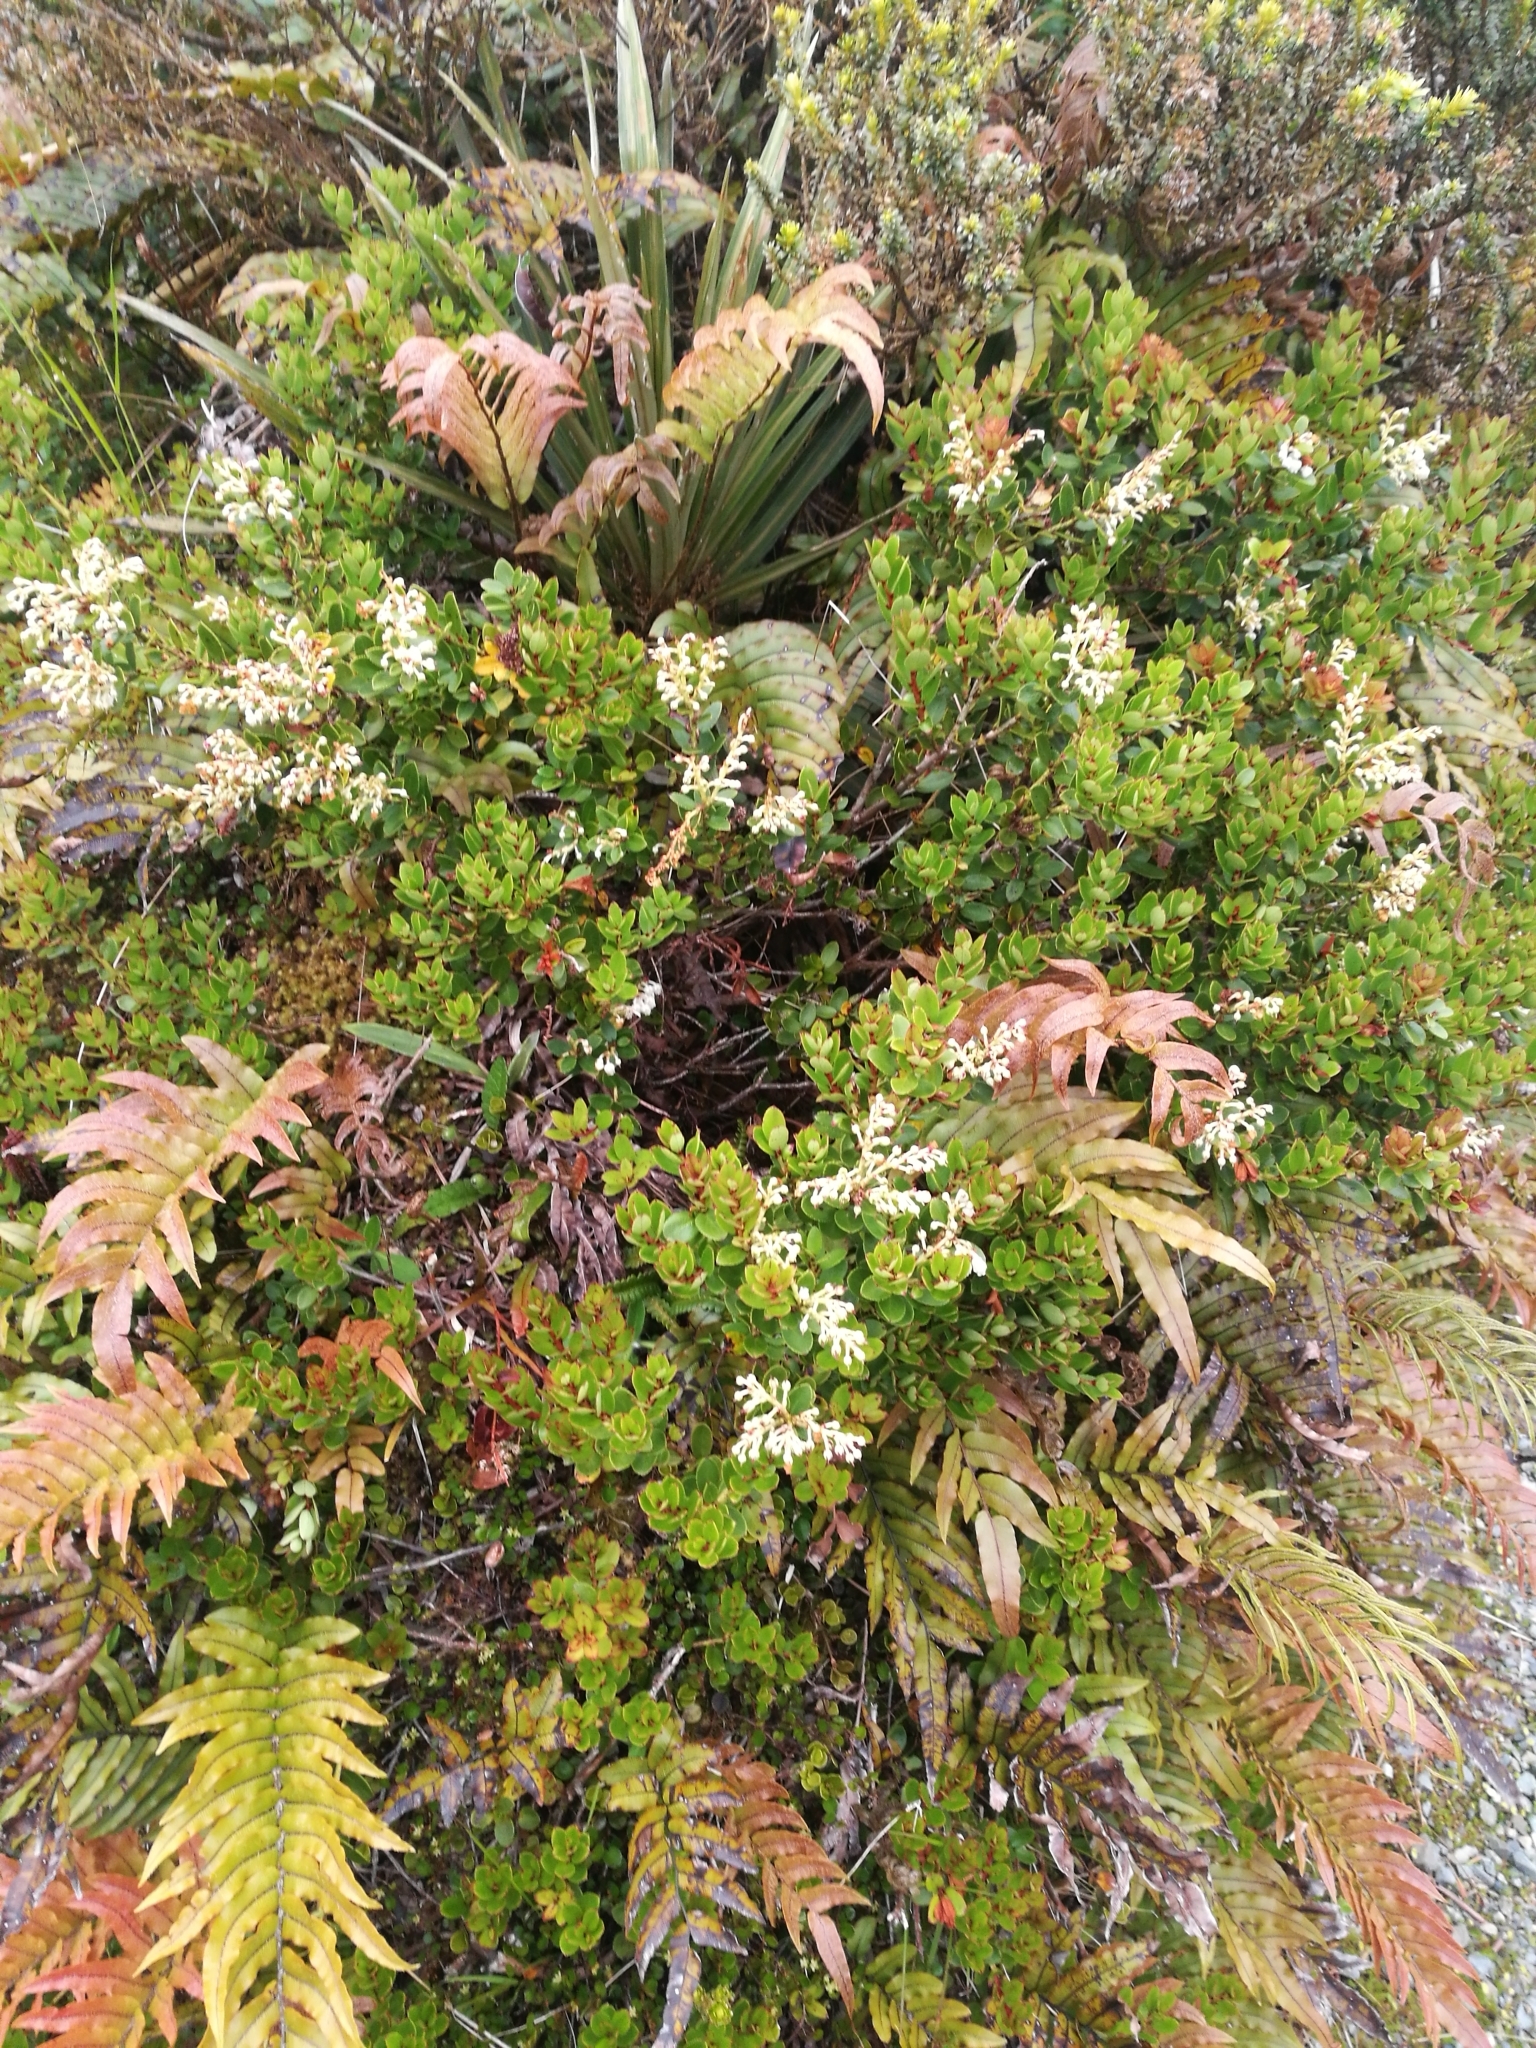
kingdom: Plantae
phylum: Tracheophyta
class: Magnoliopsida
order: Ericales
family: Ericaceae
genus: Gaultheria
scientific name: Gaultheria crassa
